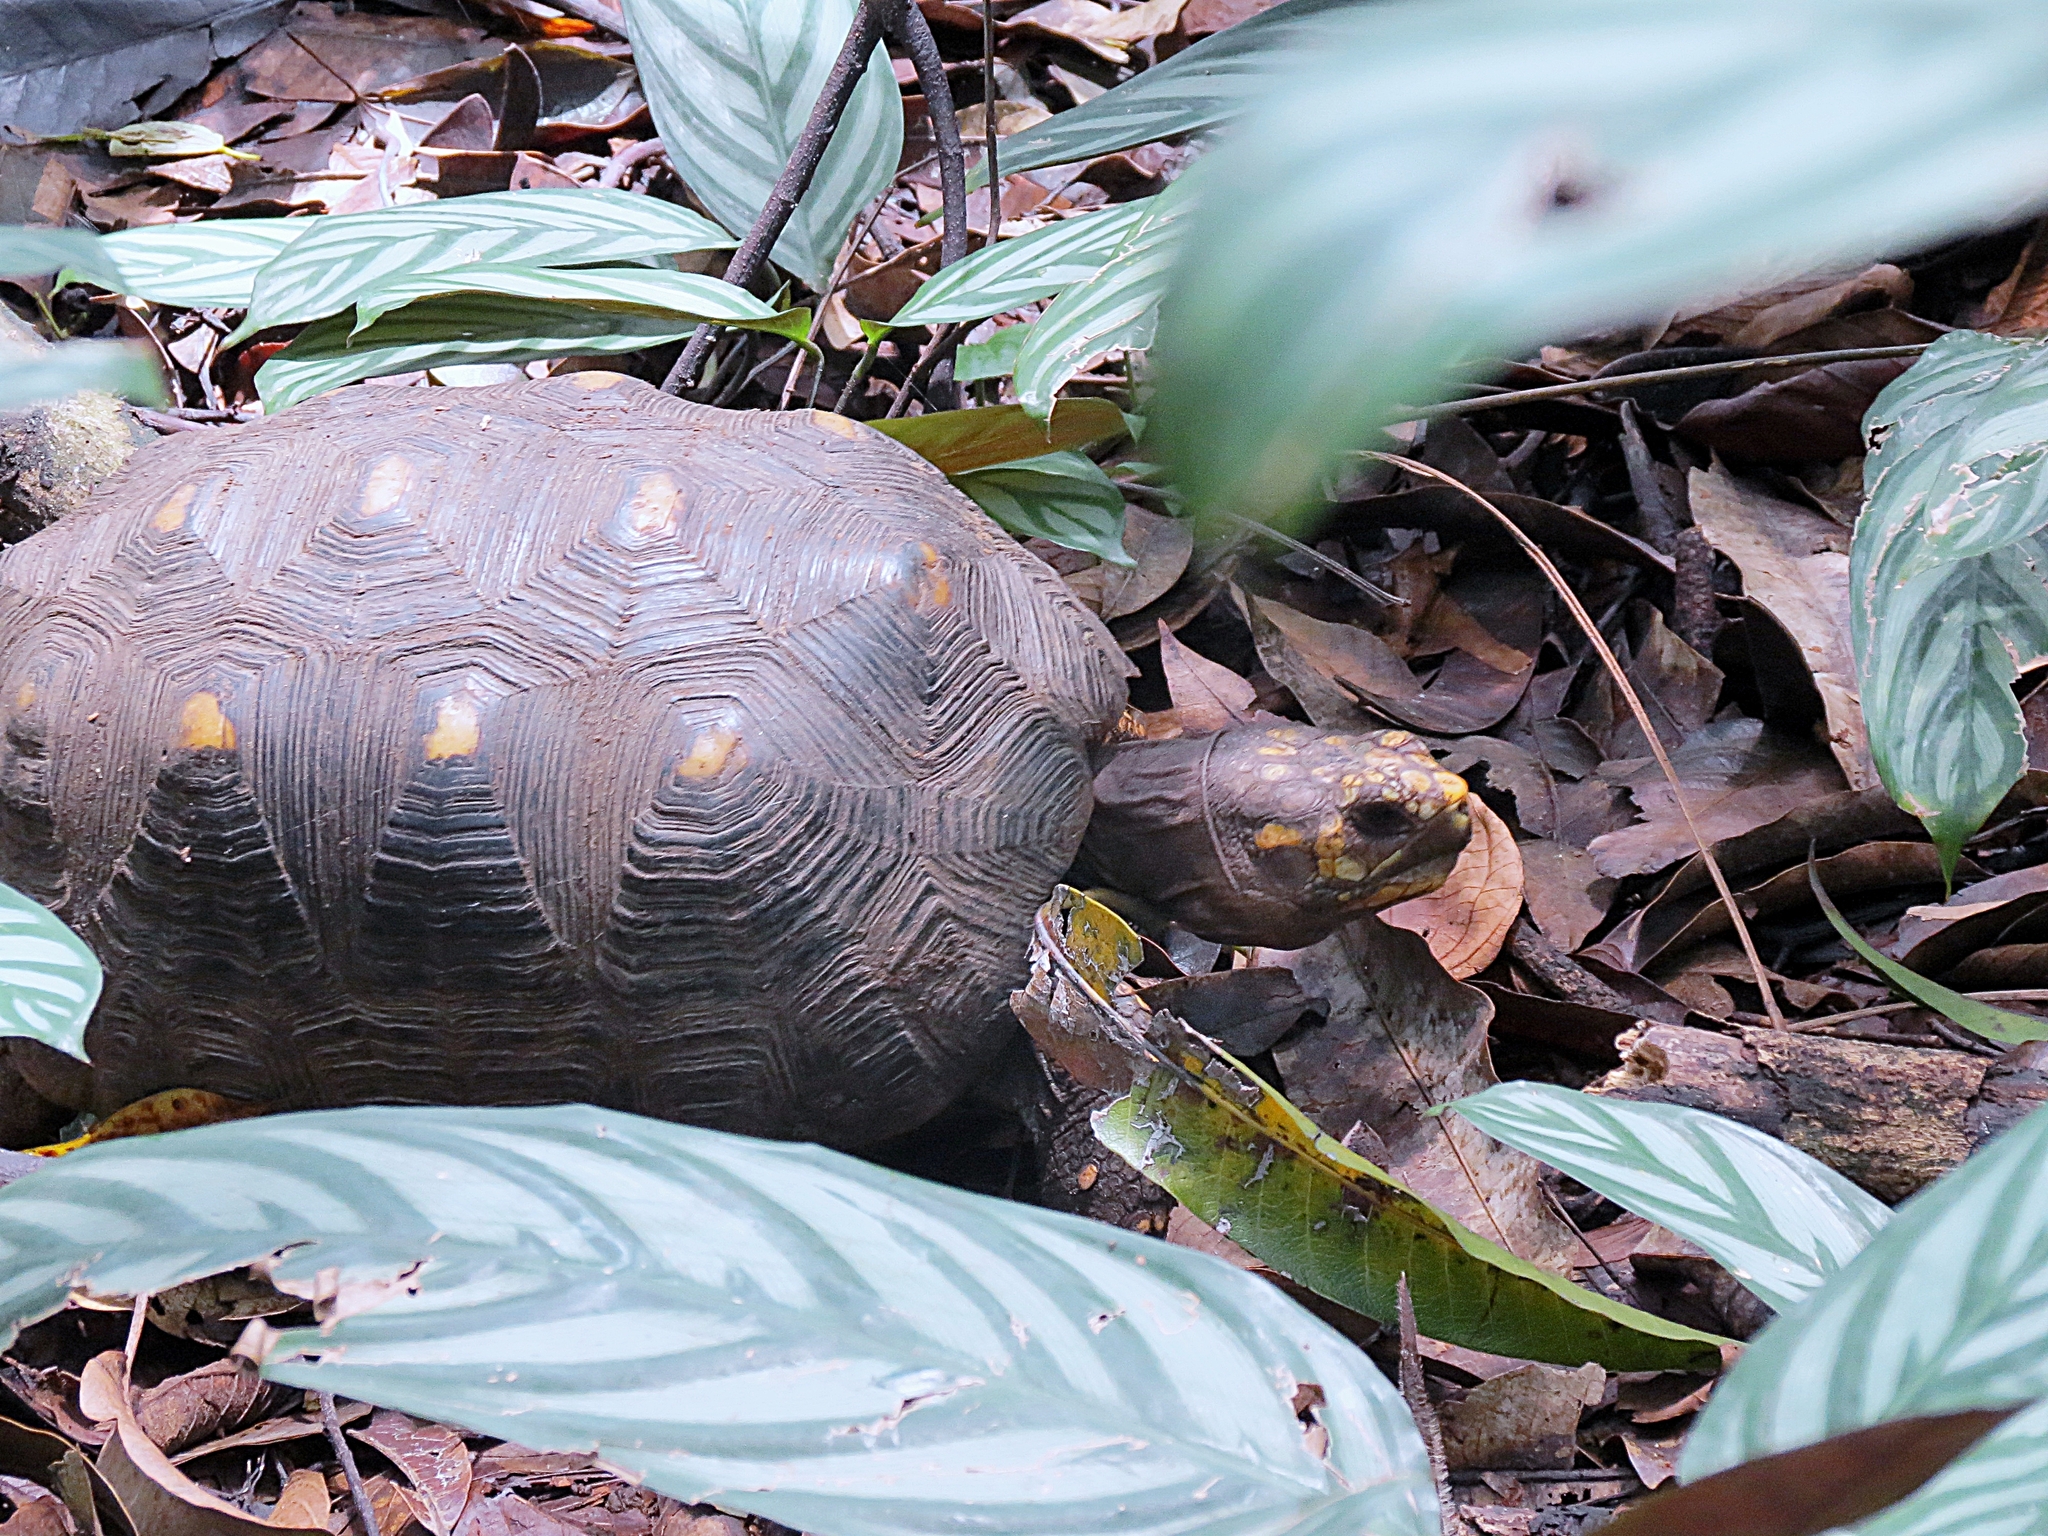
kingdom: Animalia
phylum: Chordata
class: Testudines
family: Testudinidae
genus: Chelonoidis
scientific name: Chelonoidis carbonarius
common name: Red-footed tortoise
